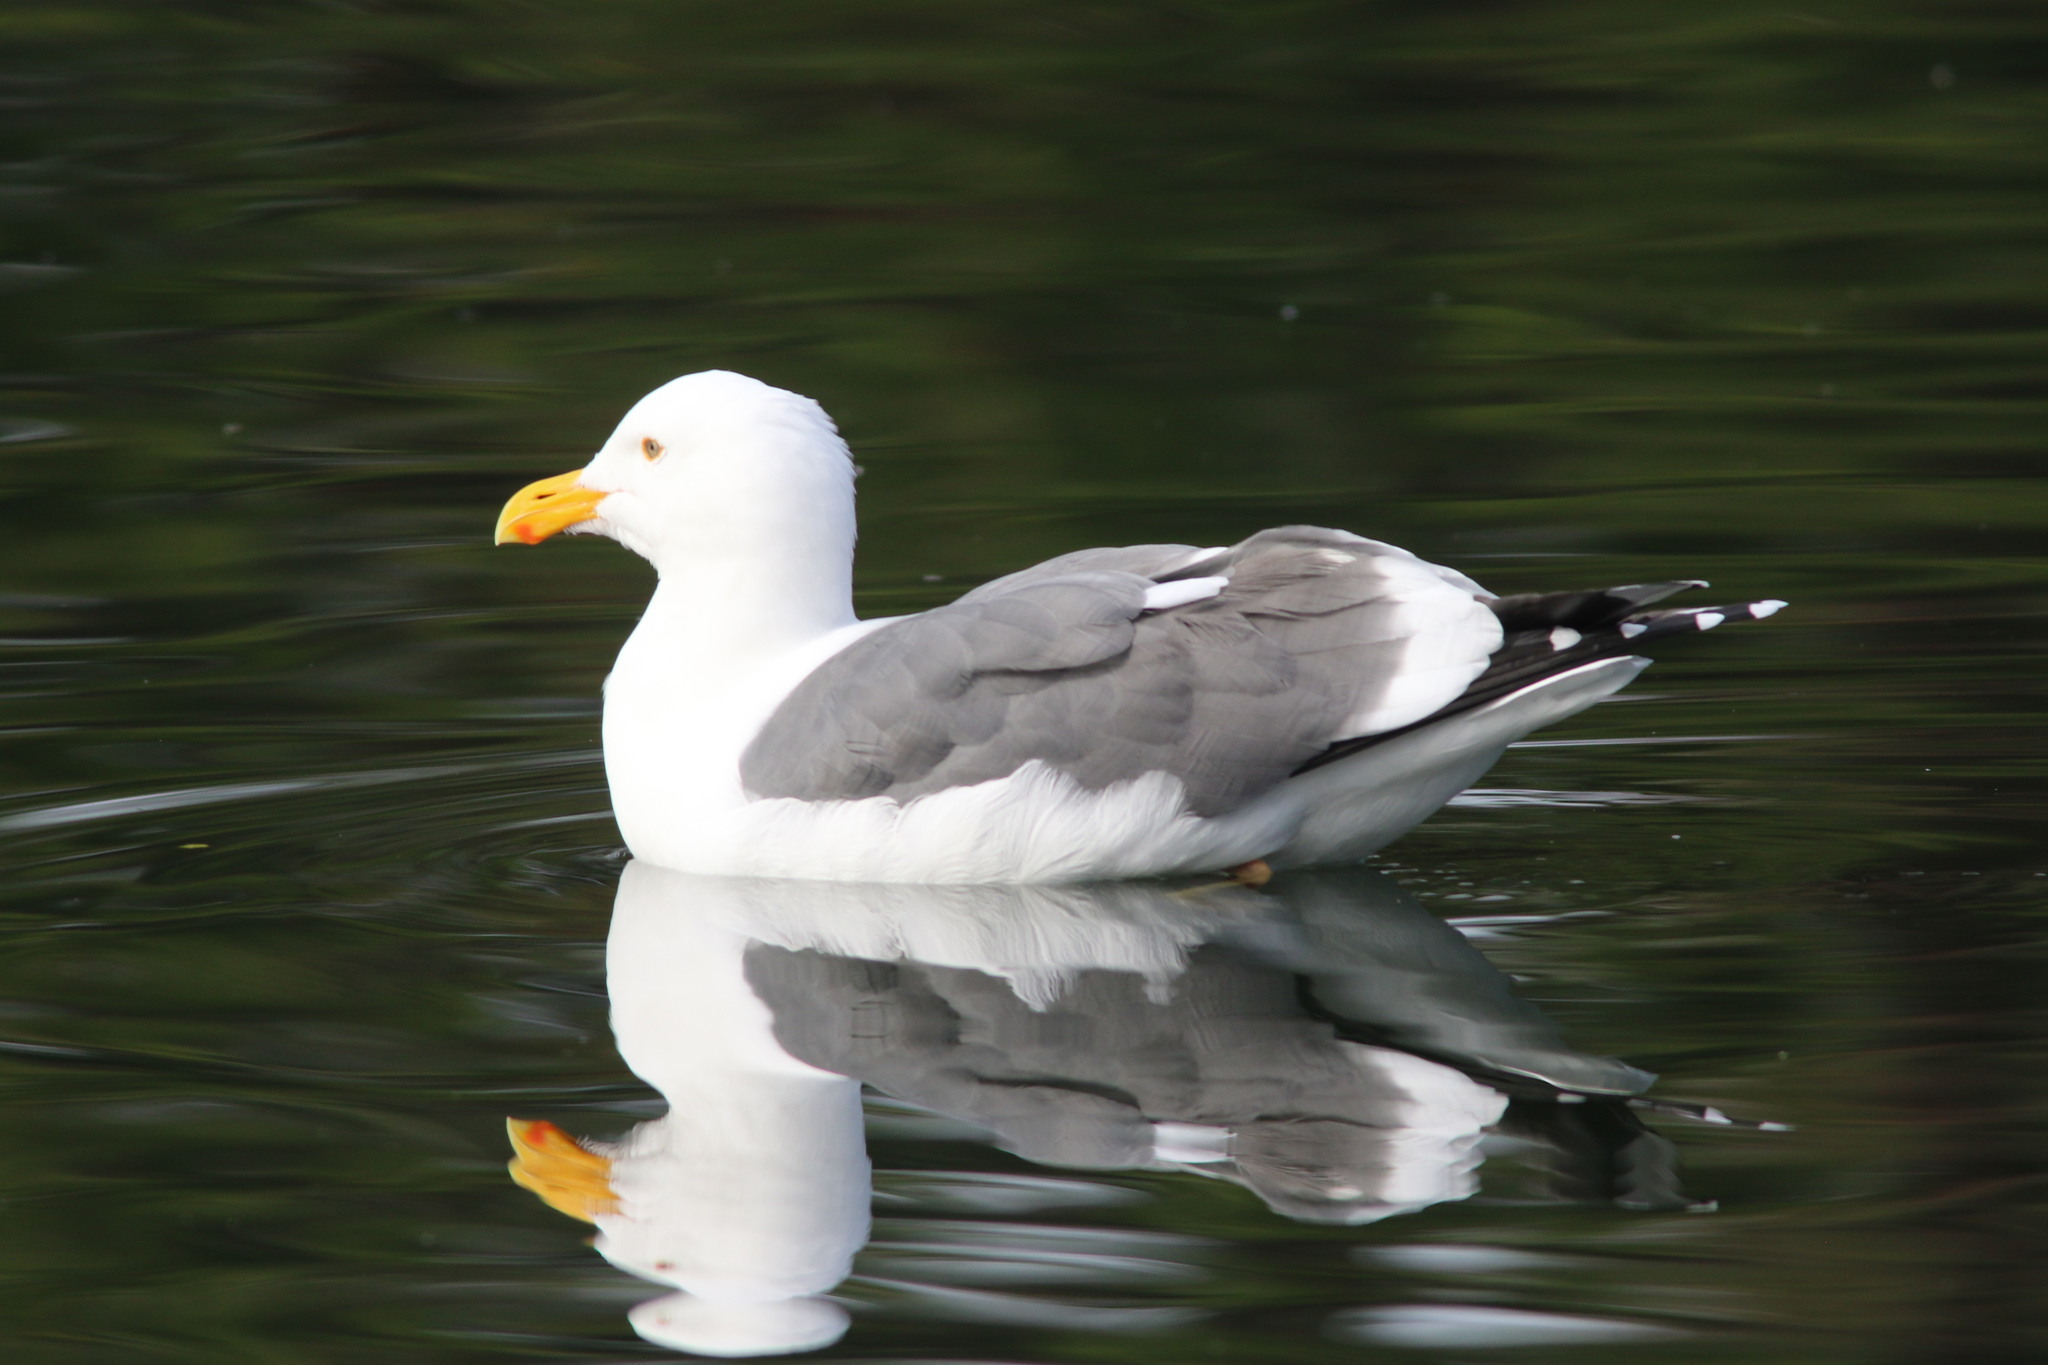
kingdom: Animalia
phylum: Chordata
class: Aves
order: Charadriiformes
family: Laridae
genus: Larus
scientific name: Larus occidentalis
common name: Western gull
